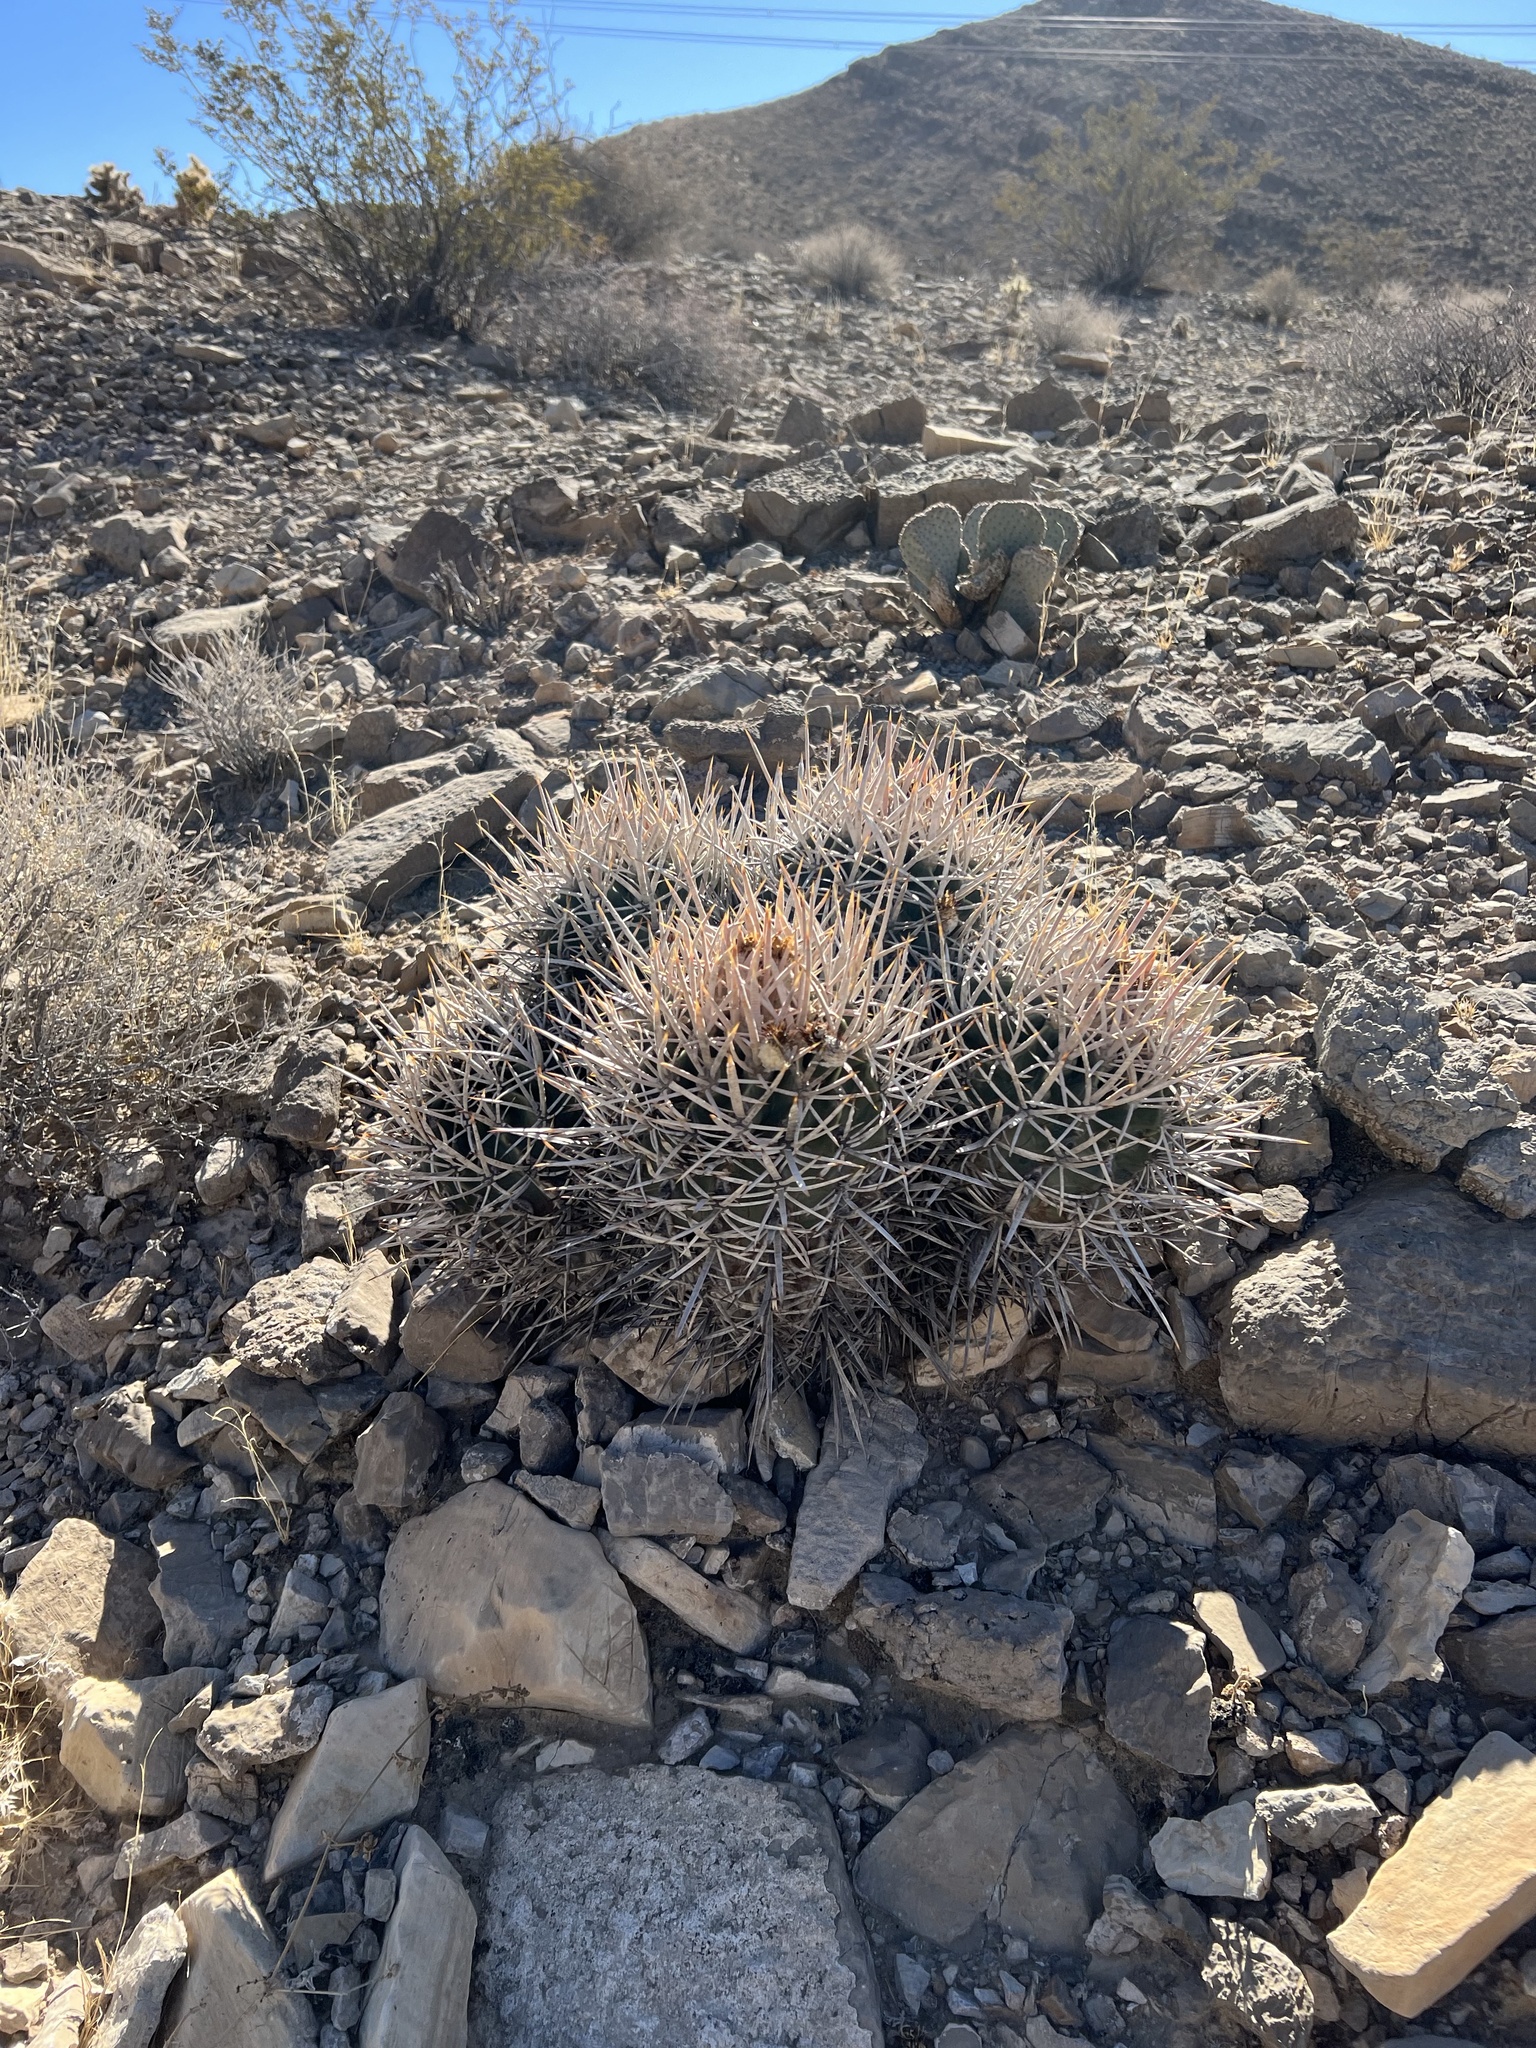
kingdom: Plantae
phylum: Tracheophyta
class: Magnoliopsida
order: Caryophyllales
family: Cactaceae
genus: Echinocactus
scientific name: Echinocactus polycephalus
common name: Cottontop cactus
